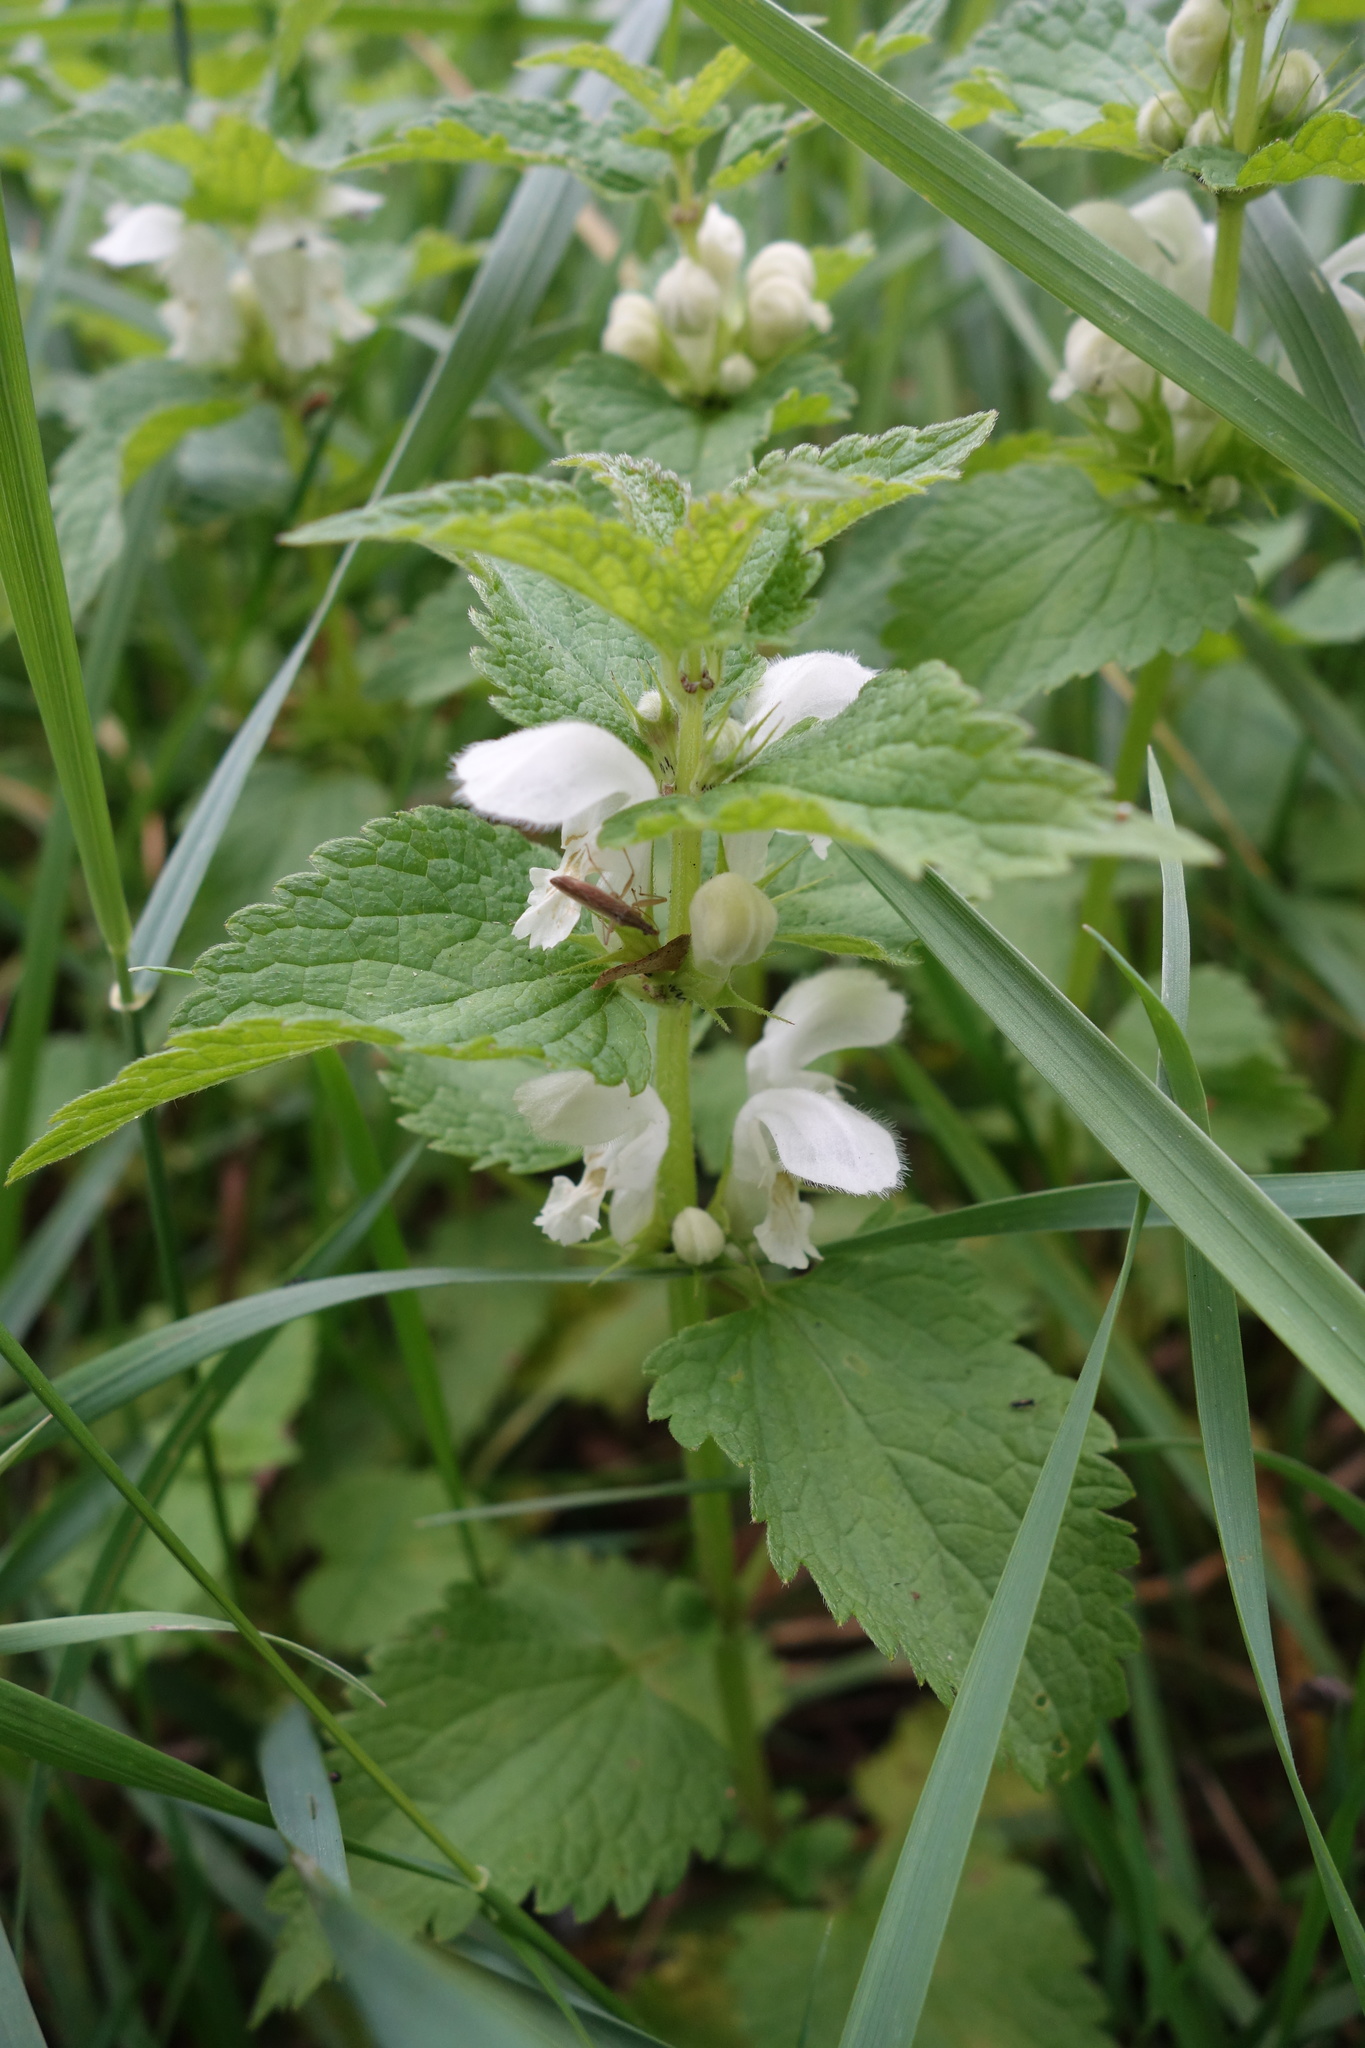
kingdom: Plantae
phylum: Tracheophyta
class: Magnoliopsida
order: Lamiales
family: Lamiaceae
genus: Lamium
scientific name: Lamium album
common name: White dead-nettle
